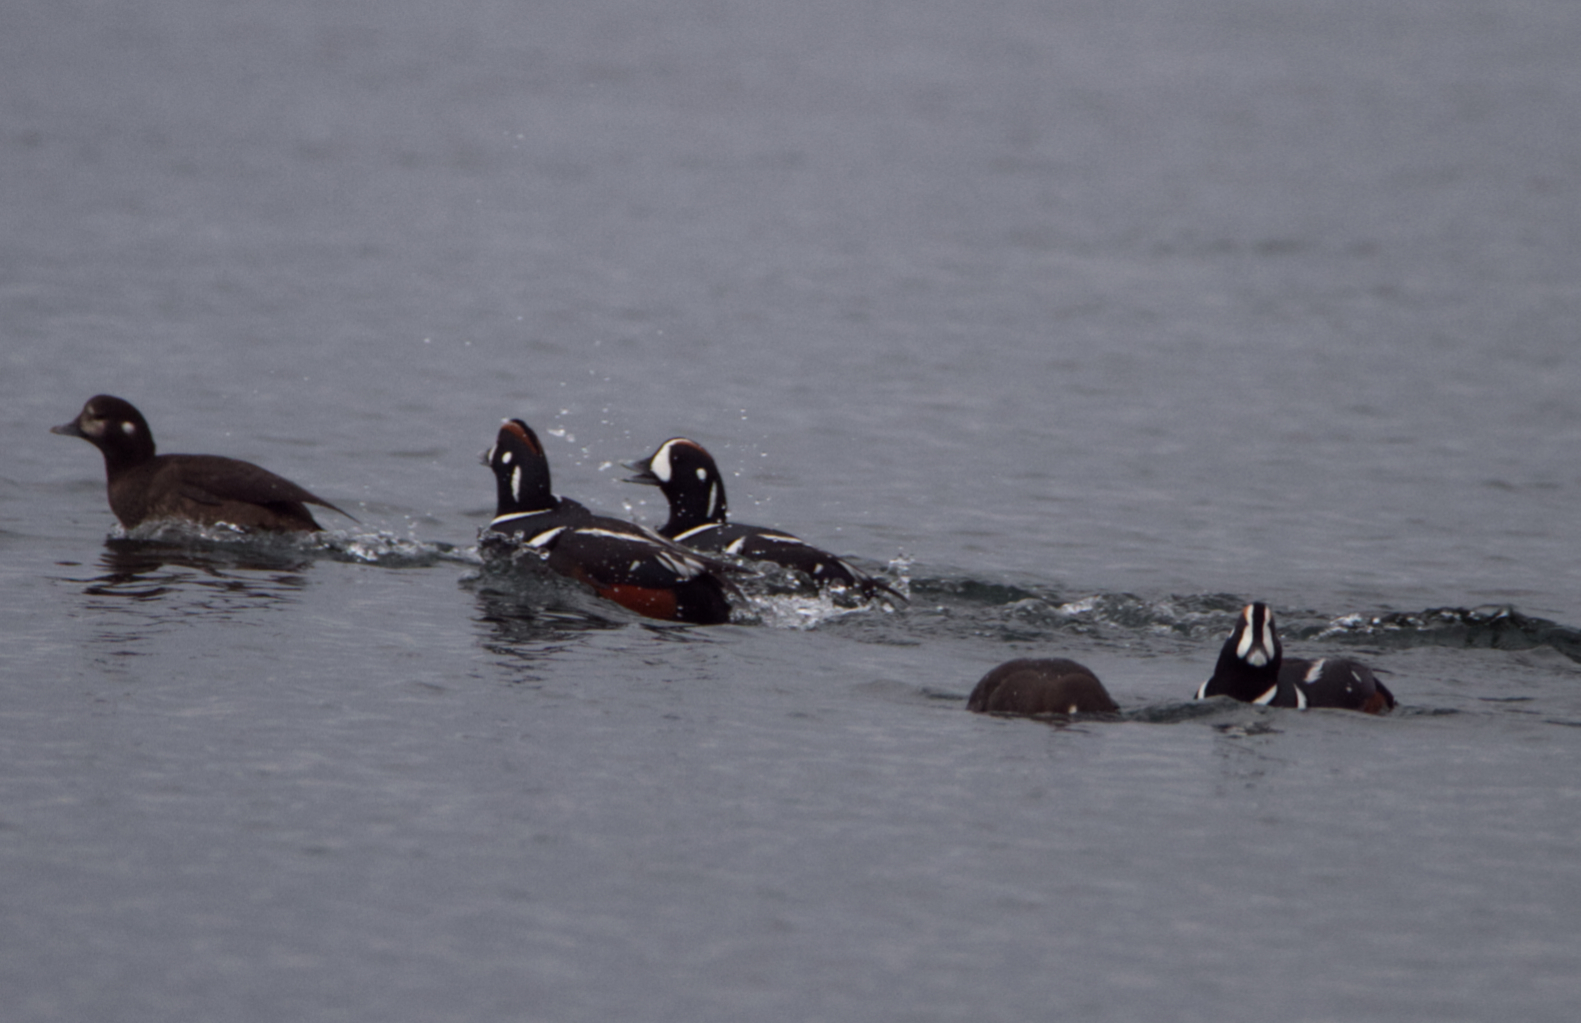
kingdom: Animalia
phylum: Chordata
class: Aves
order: Anseriformes
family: Anatidae
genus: Histrionicus
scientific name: Histrionicus histrionicus
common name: Harlequin duck
